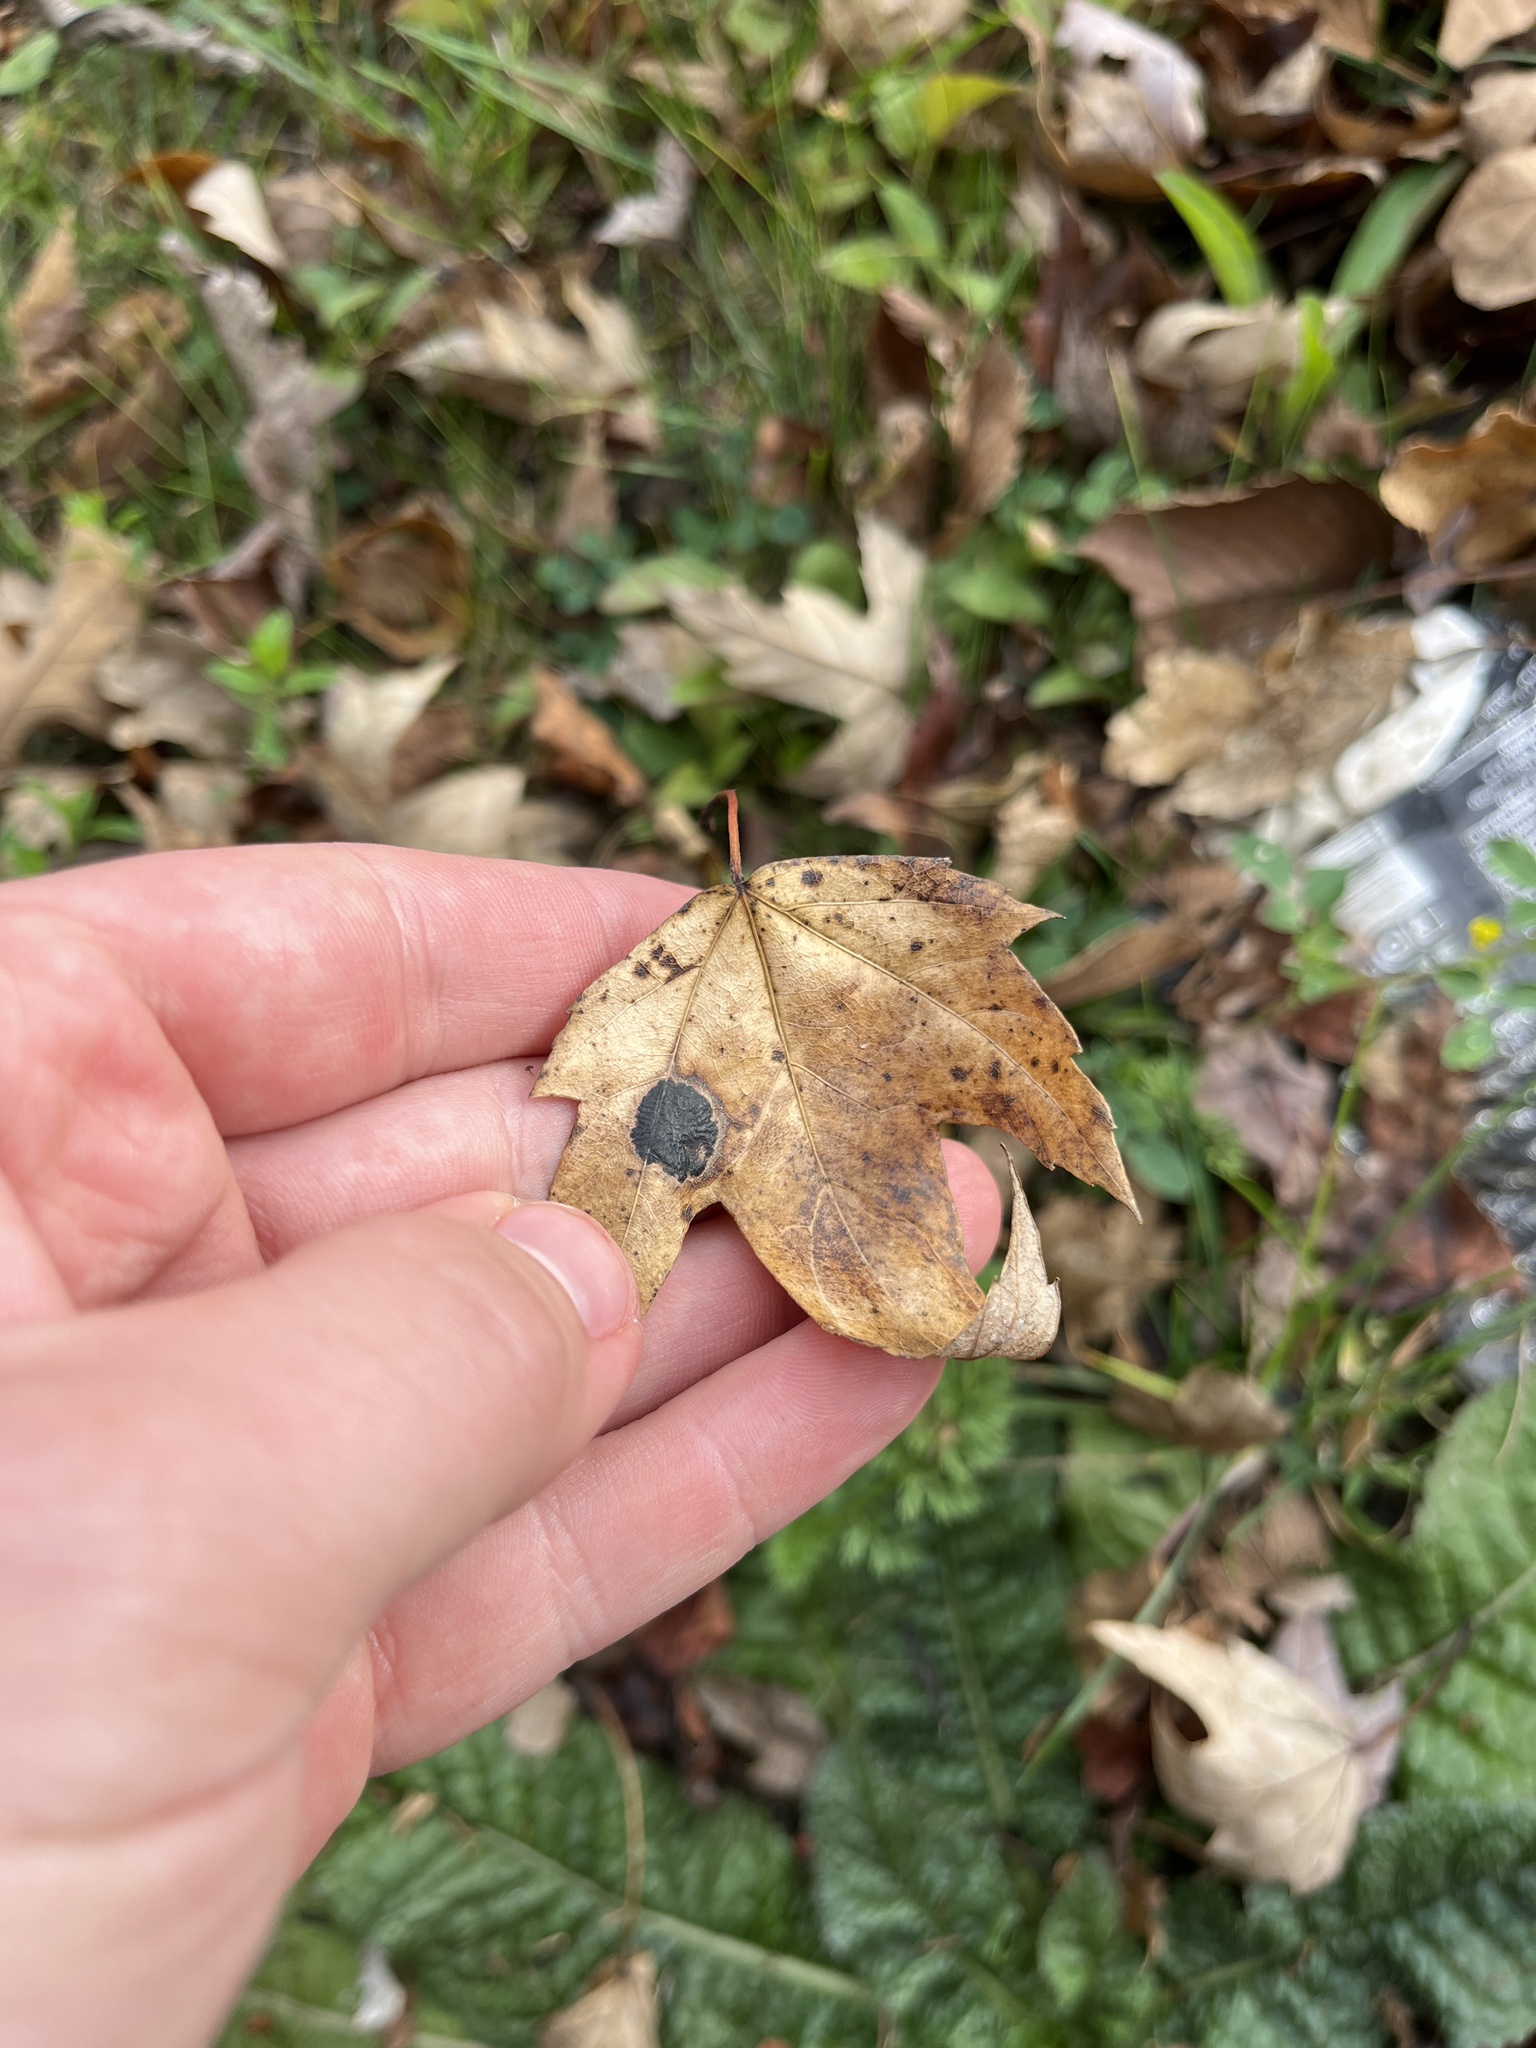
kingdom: Fungi
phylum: Ascomycota
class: Leotiomycetes
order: Rhytismatales
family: Rhytismataceae
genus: Rhytisma
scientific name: Rhytisma americanum
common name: American tar spot
